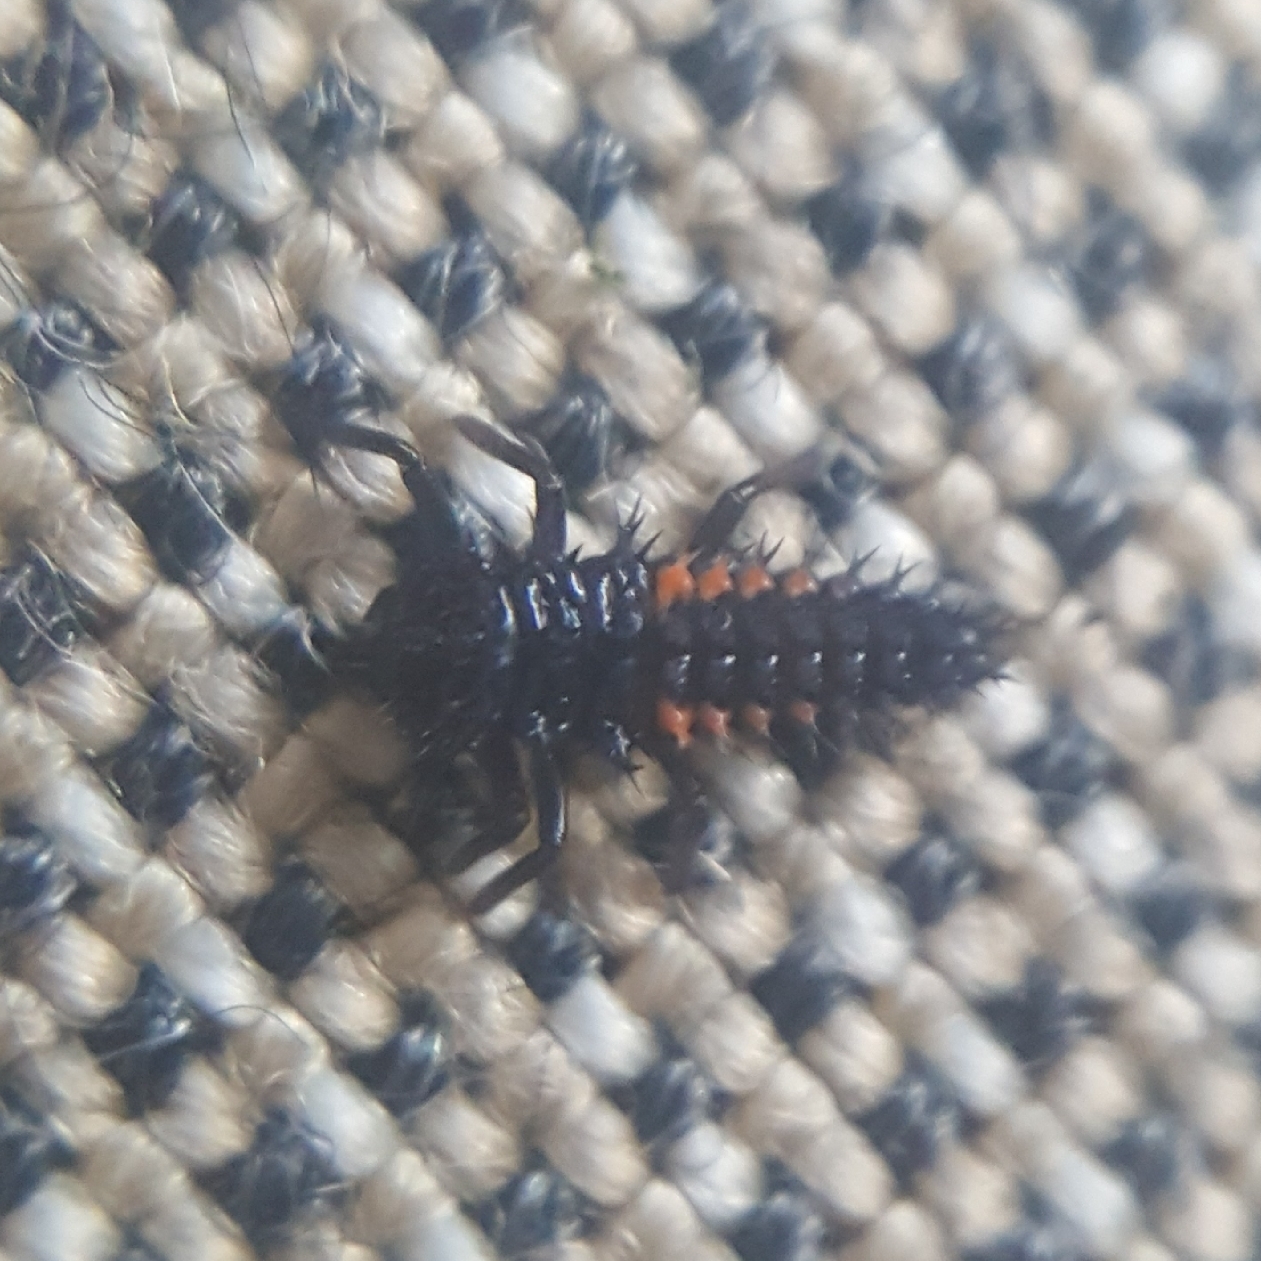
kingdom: Animalia
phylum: Arthropoda
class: Insecta
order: Coleoptera
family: Coccinellidae
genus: Harmonia
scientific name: Harmonia axyridis
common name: Harlequin ladybird
